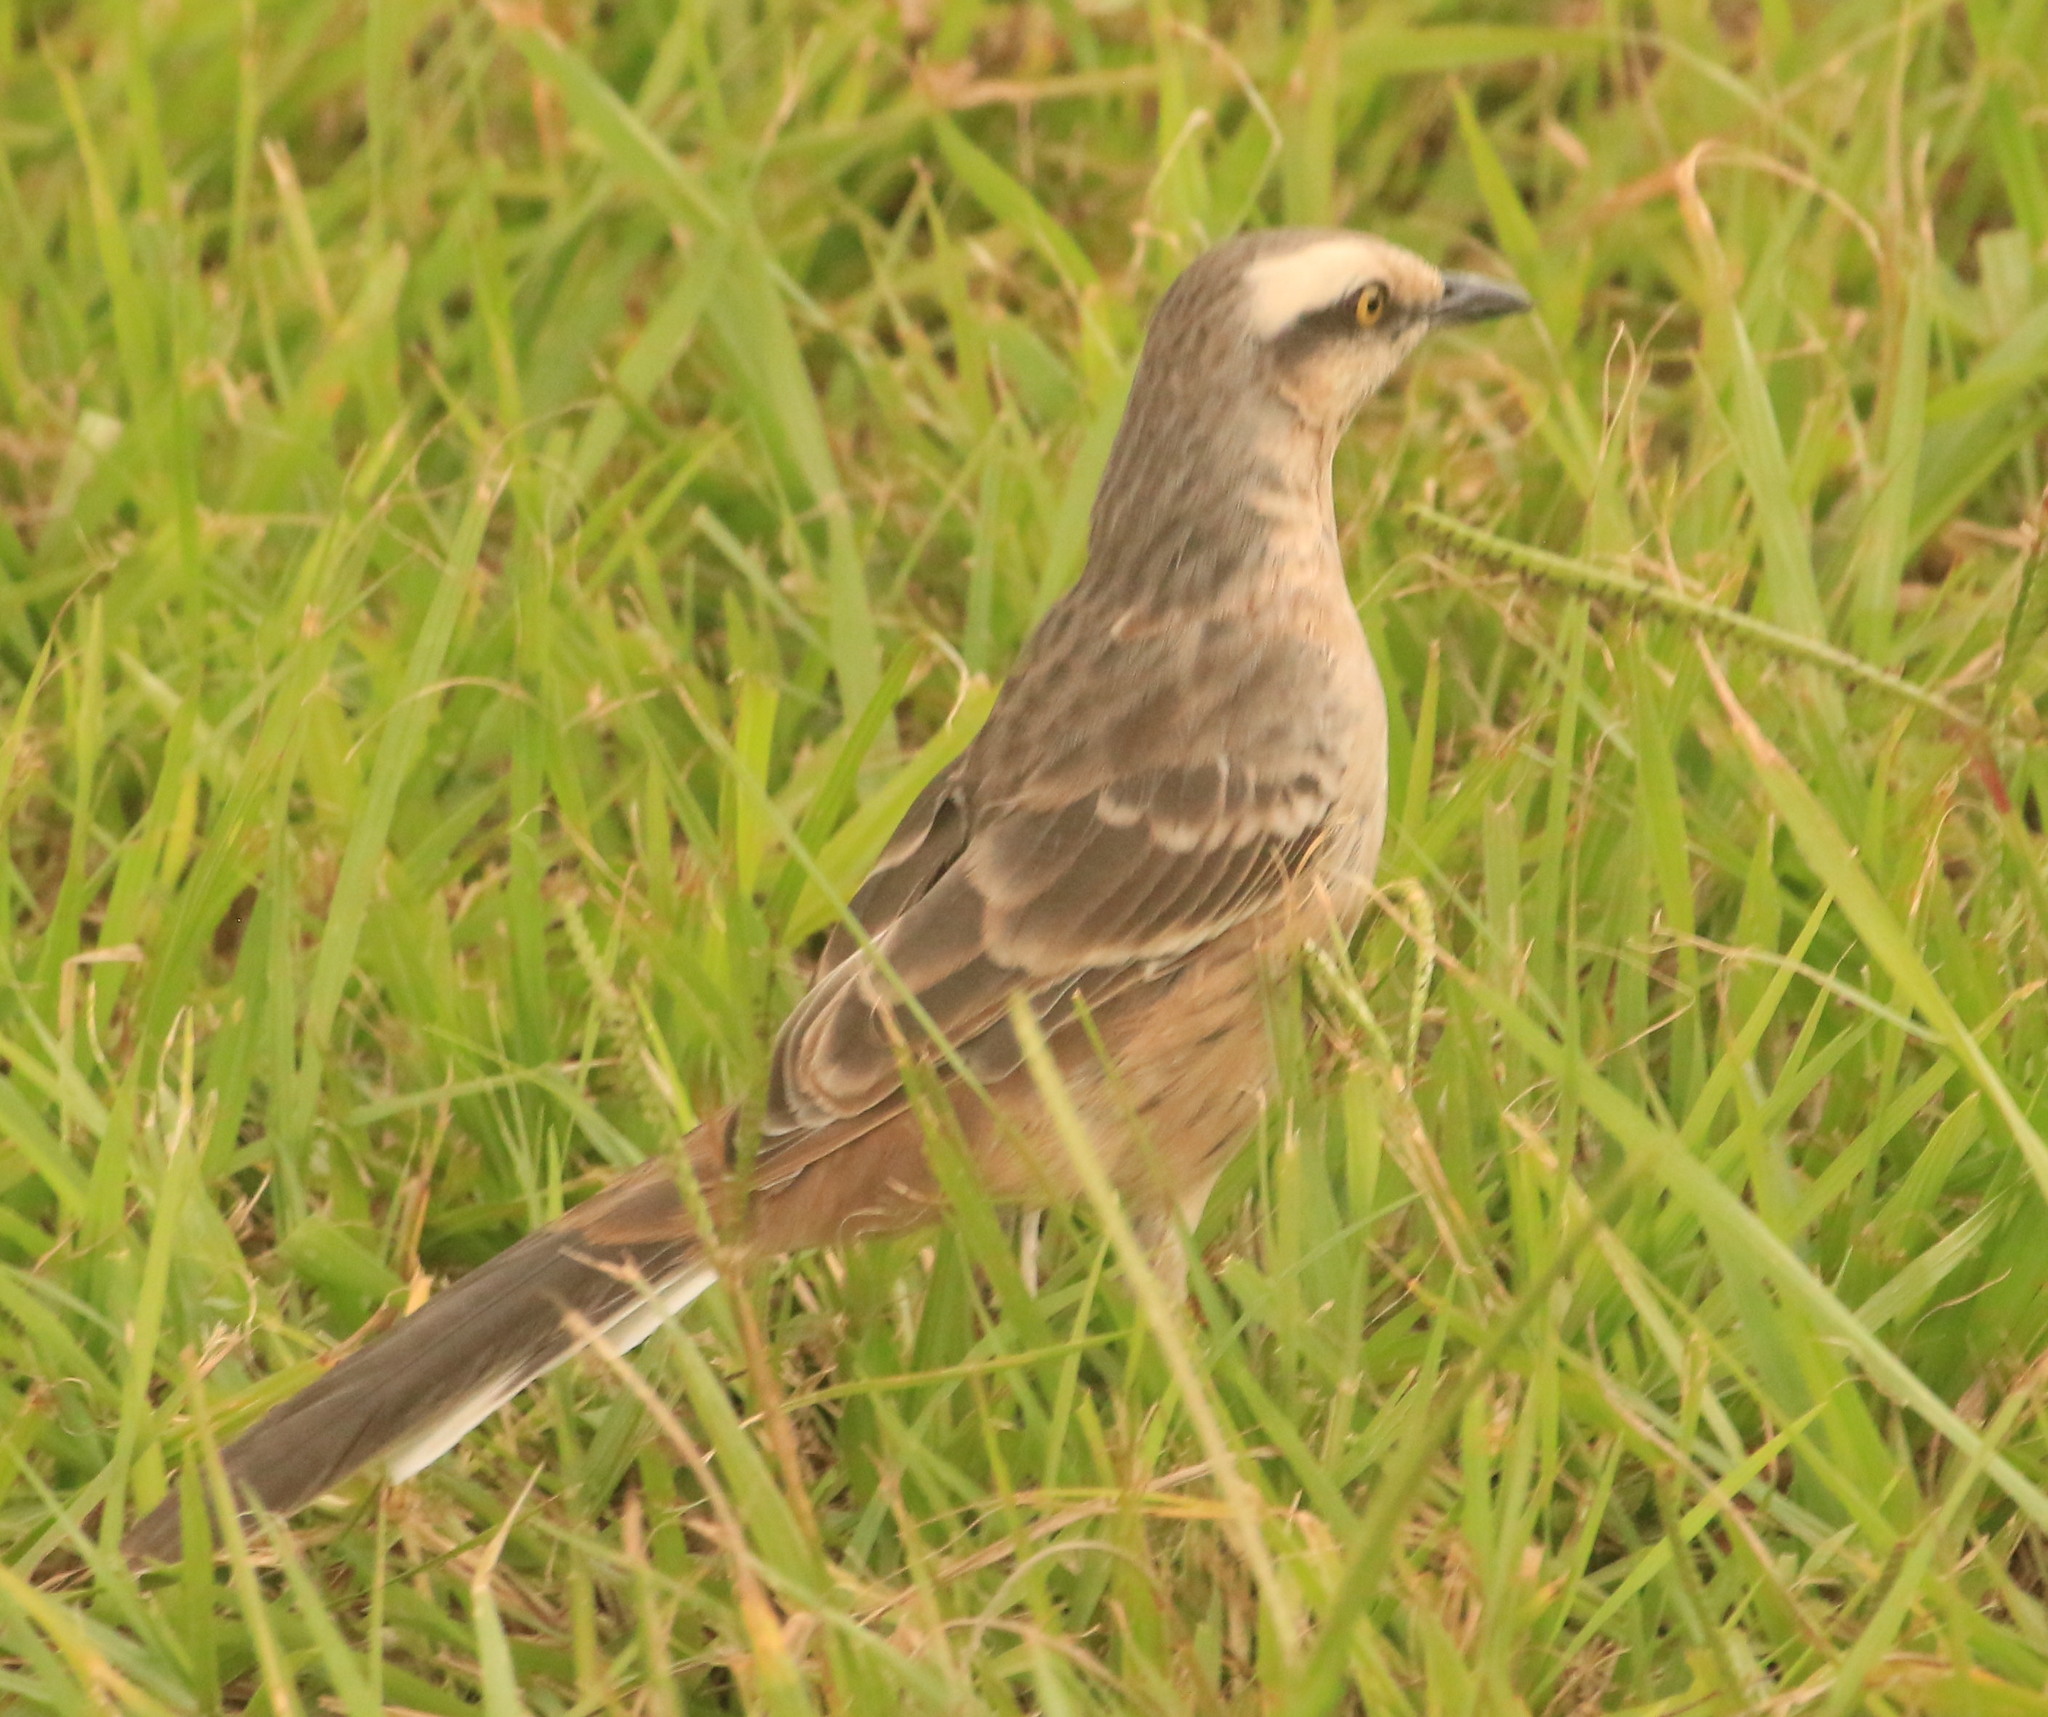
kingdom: Animalia
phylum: Chordata
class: Aves
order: Passeriformes
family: Mimidae
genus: Mimus
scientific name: Mimus saturninus
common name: Chalk-browed mockingbird
